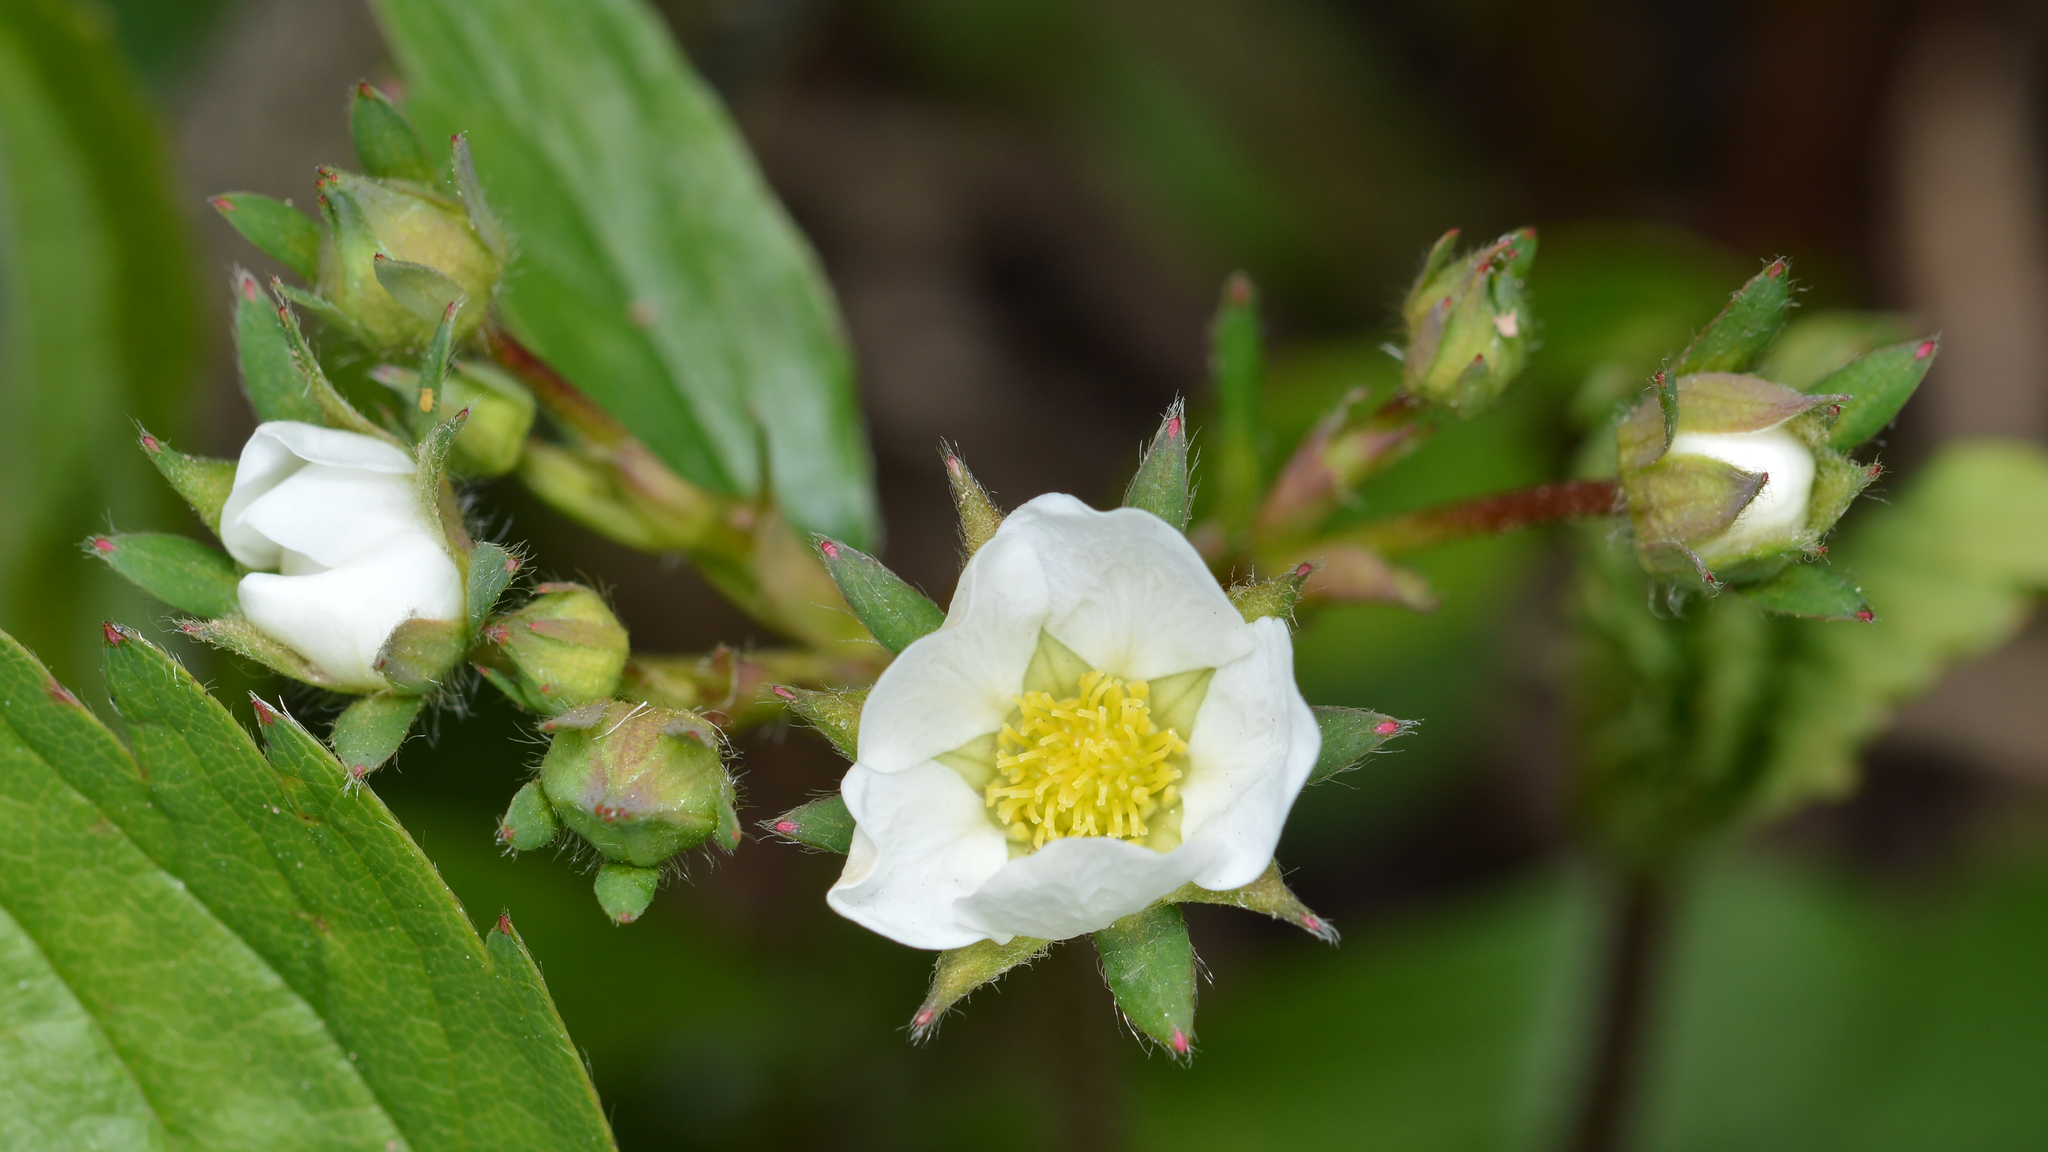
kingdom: Plantae
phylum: Tracheophyta
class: Magnoliopsida
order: Rosales
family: Rosaceae
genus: Fragaria
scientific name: Fragaria virginiana
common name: Thickleaved wild strawberry
